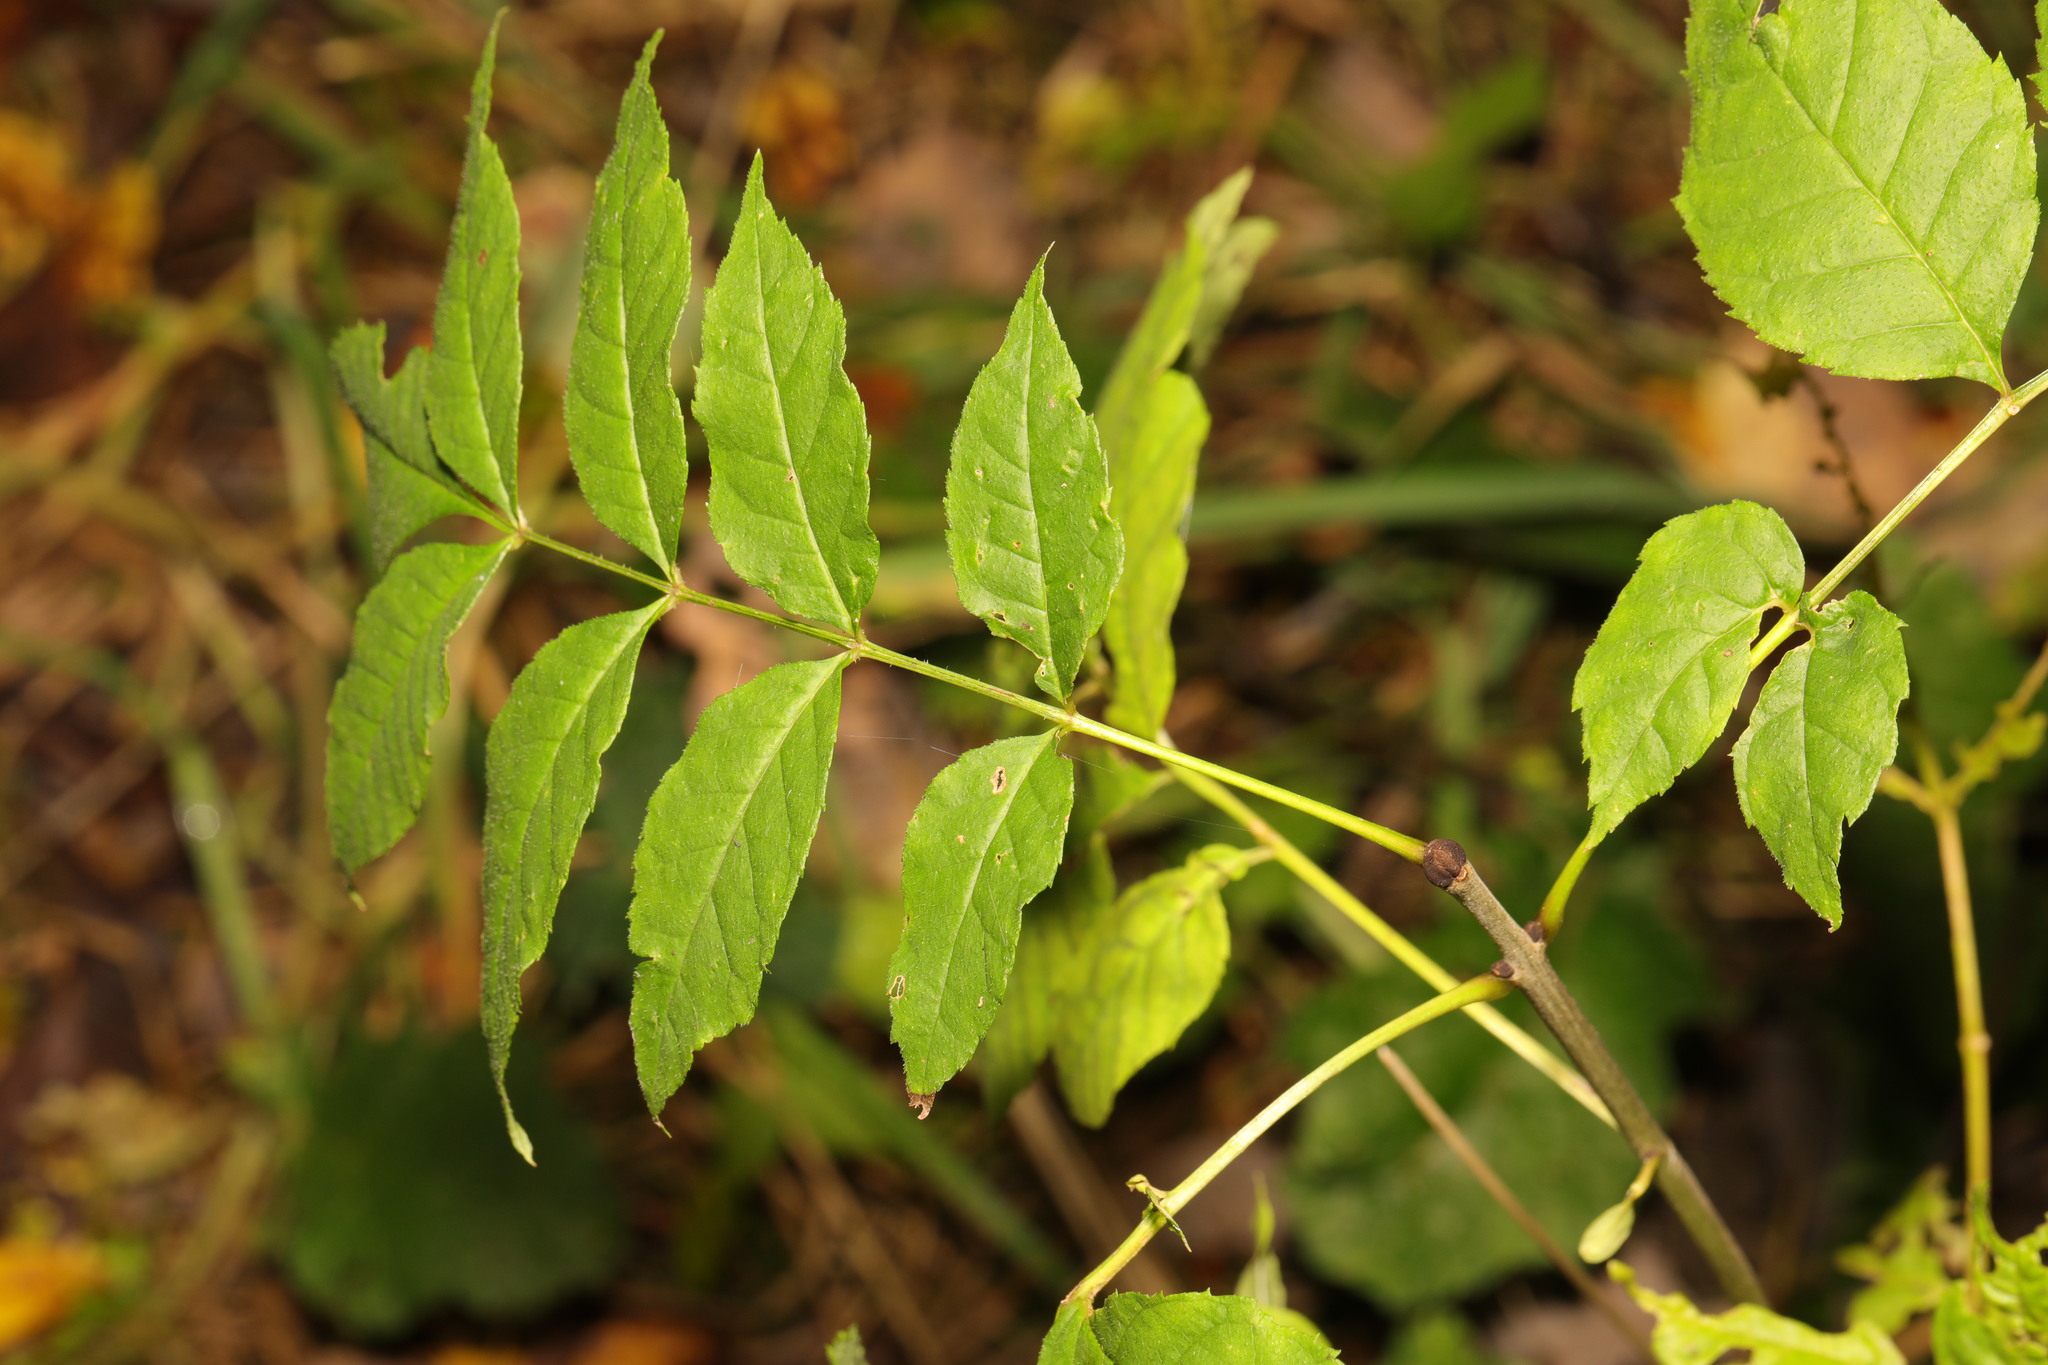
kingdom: Plantae
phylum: Tracheophyta
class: Magnoliopsida
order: Lamiales
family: Oleaceae
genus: Fraxinus
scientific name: Fraxinus excelsior
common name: European ash
